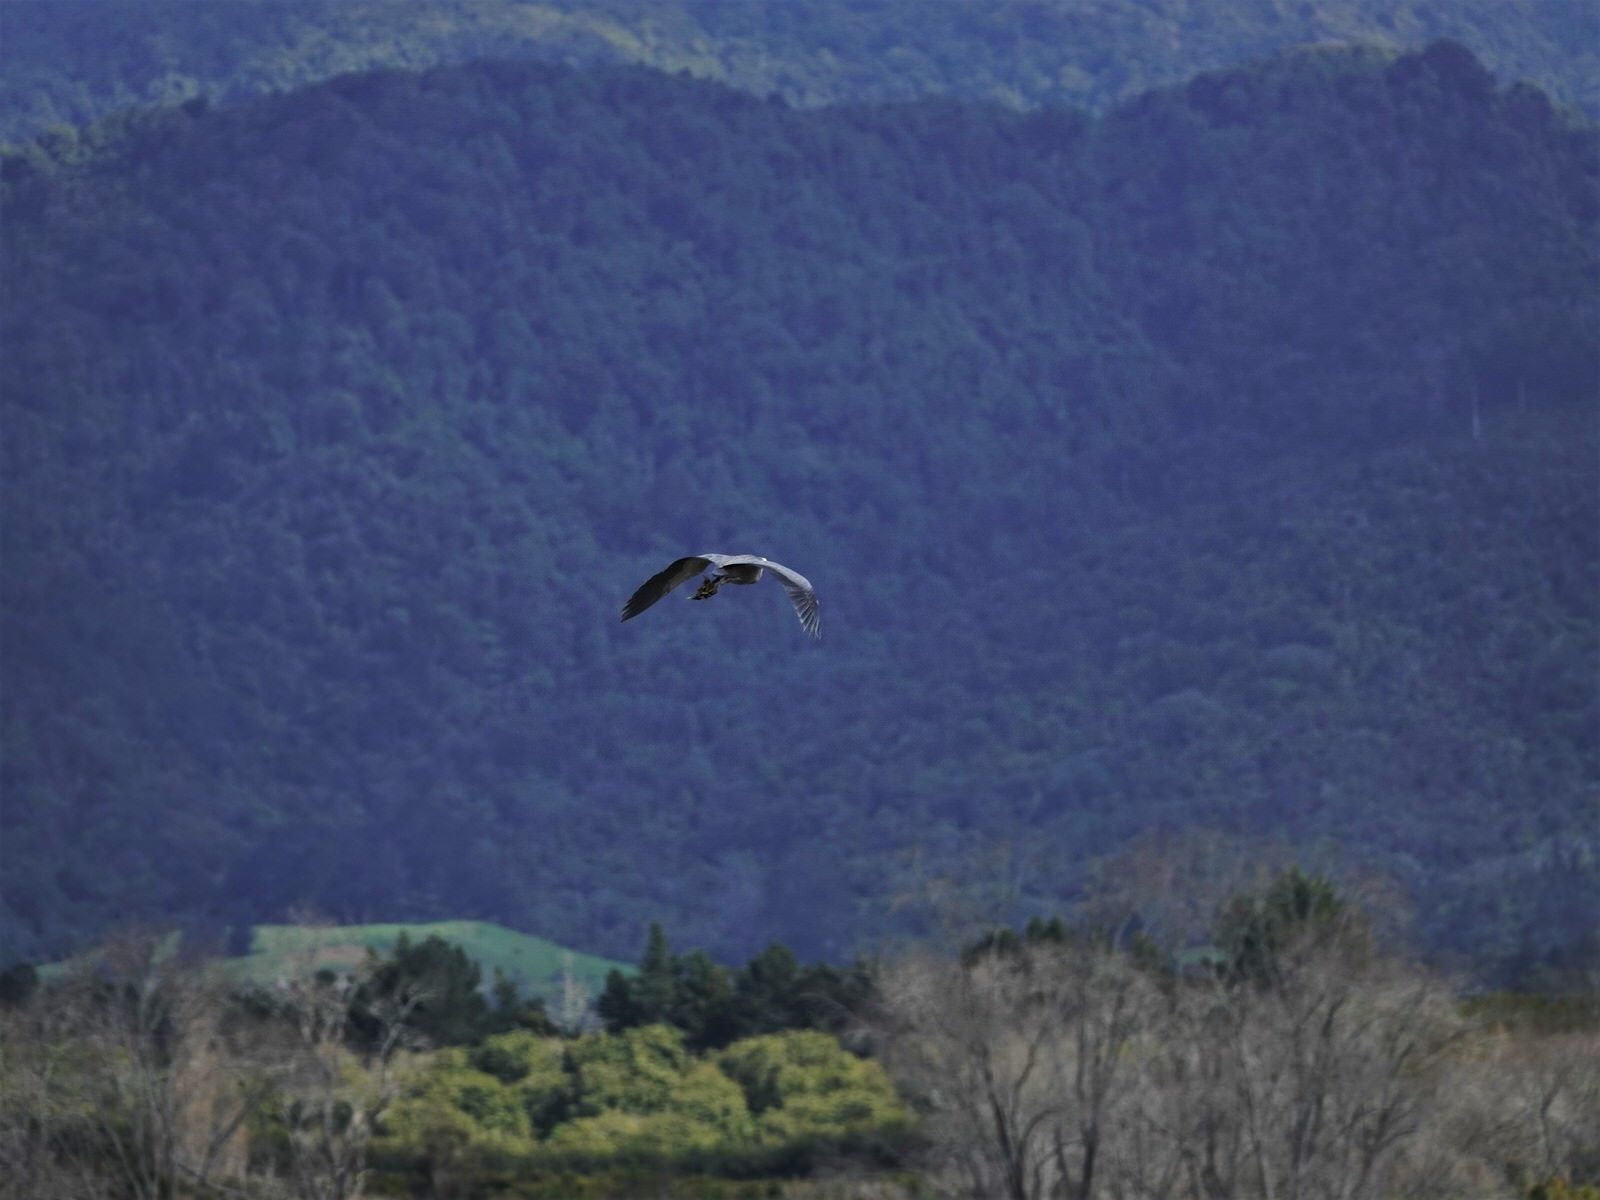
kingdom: Animalia
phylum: Chordata
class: Aves
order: Pelecaniformes
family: Ardeidae
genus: Egretta
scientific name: Egretta novaehollandiae
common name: White-faced heron
